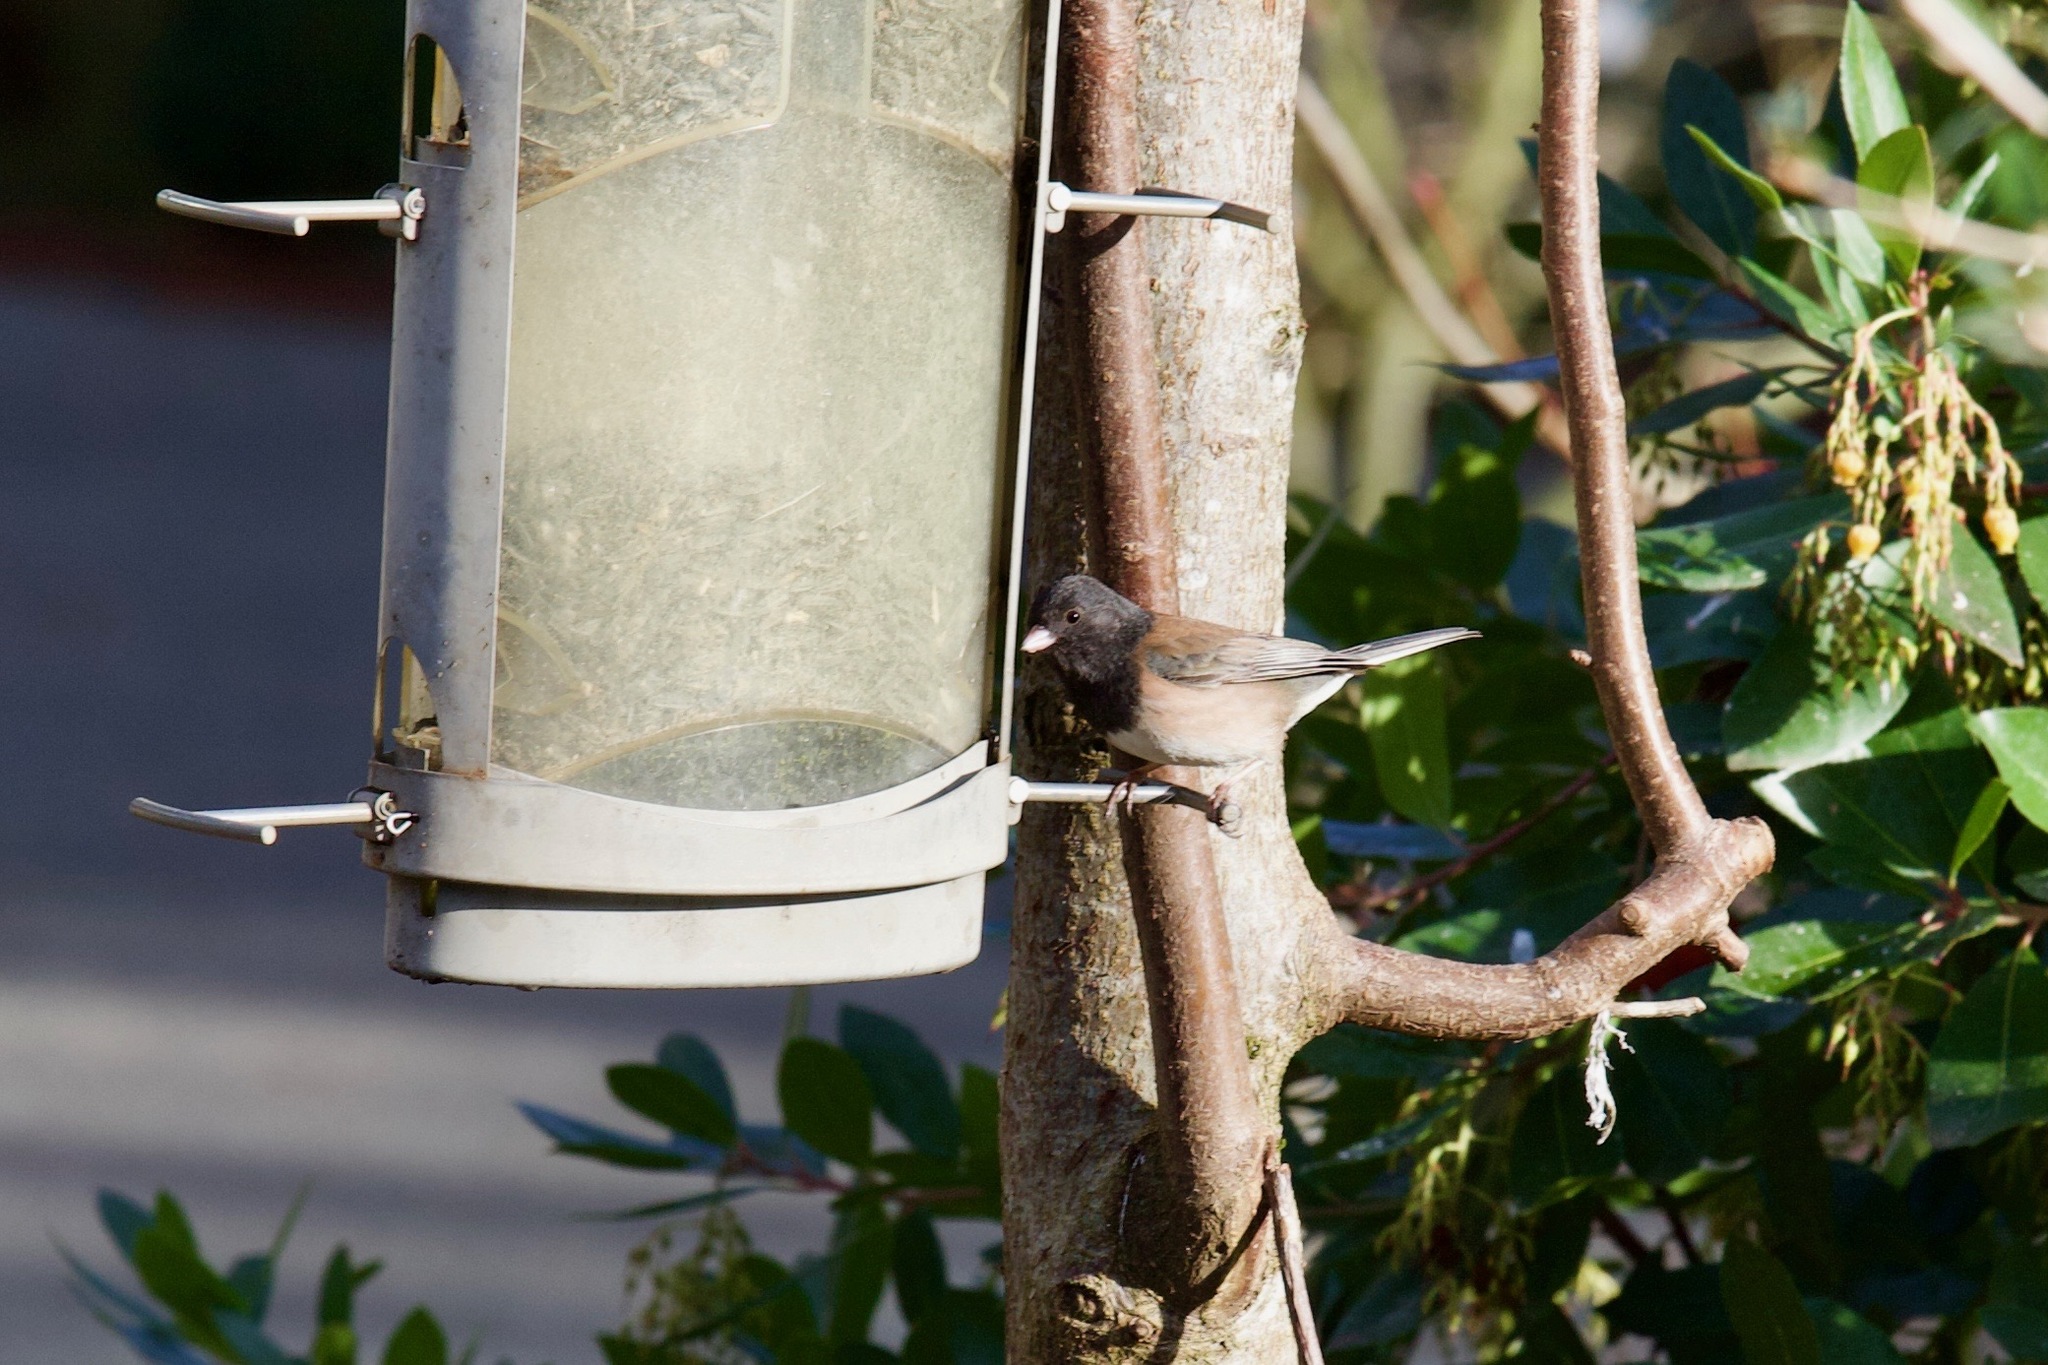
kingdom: Animalia
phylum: Chordata
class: Aves
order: Passeriformes
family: Passerellidae
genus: Junco
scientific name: Junco hyemalis
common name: Dark-eyed junco
